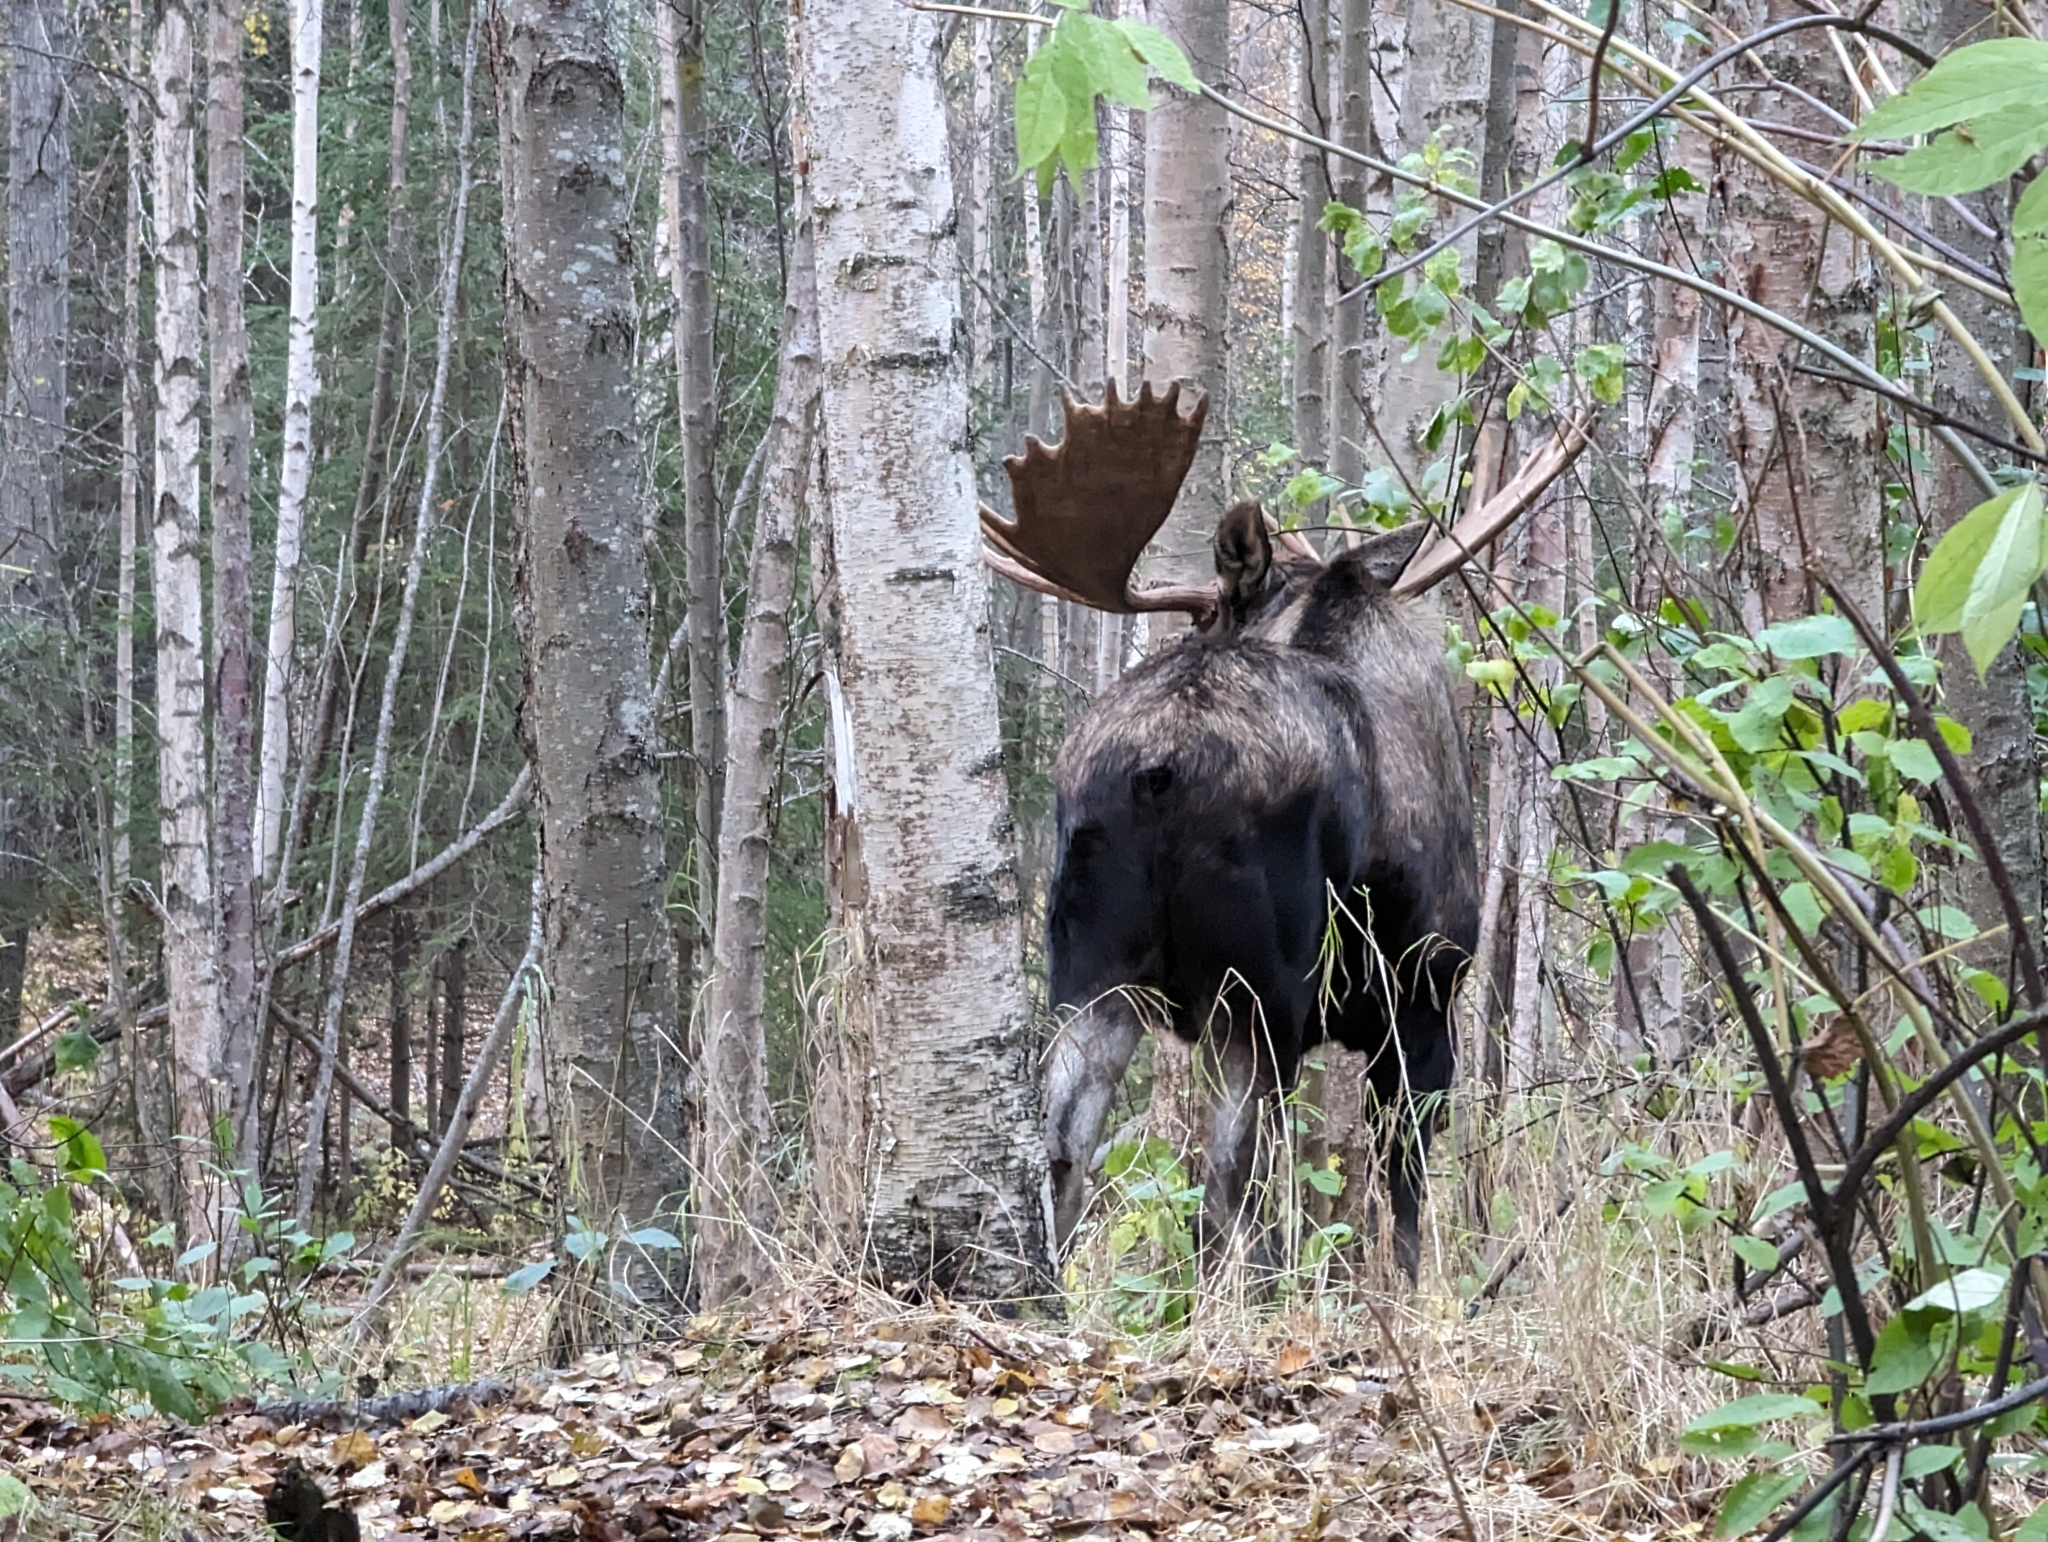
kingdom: Animalia
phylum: Chordata
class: Mammalia
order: Artiodactyla
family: Cervidae
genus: Alces
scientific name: Alces alces
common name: Moose
